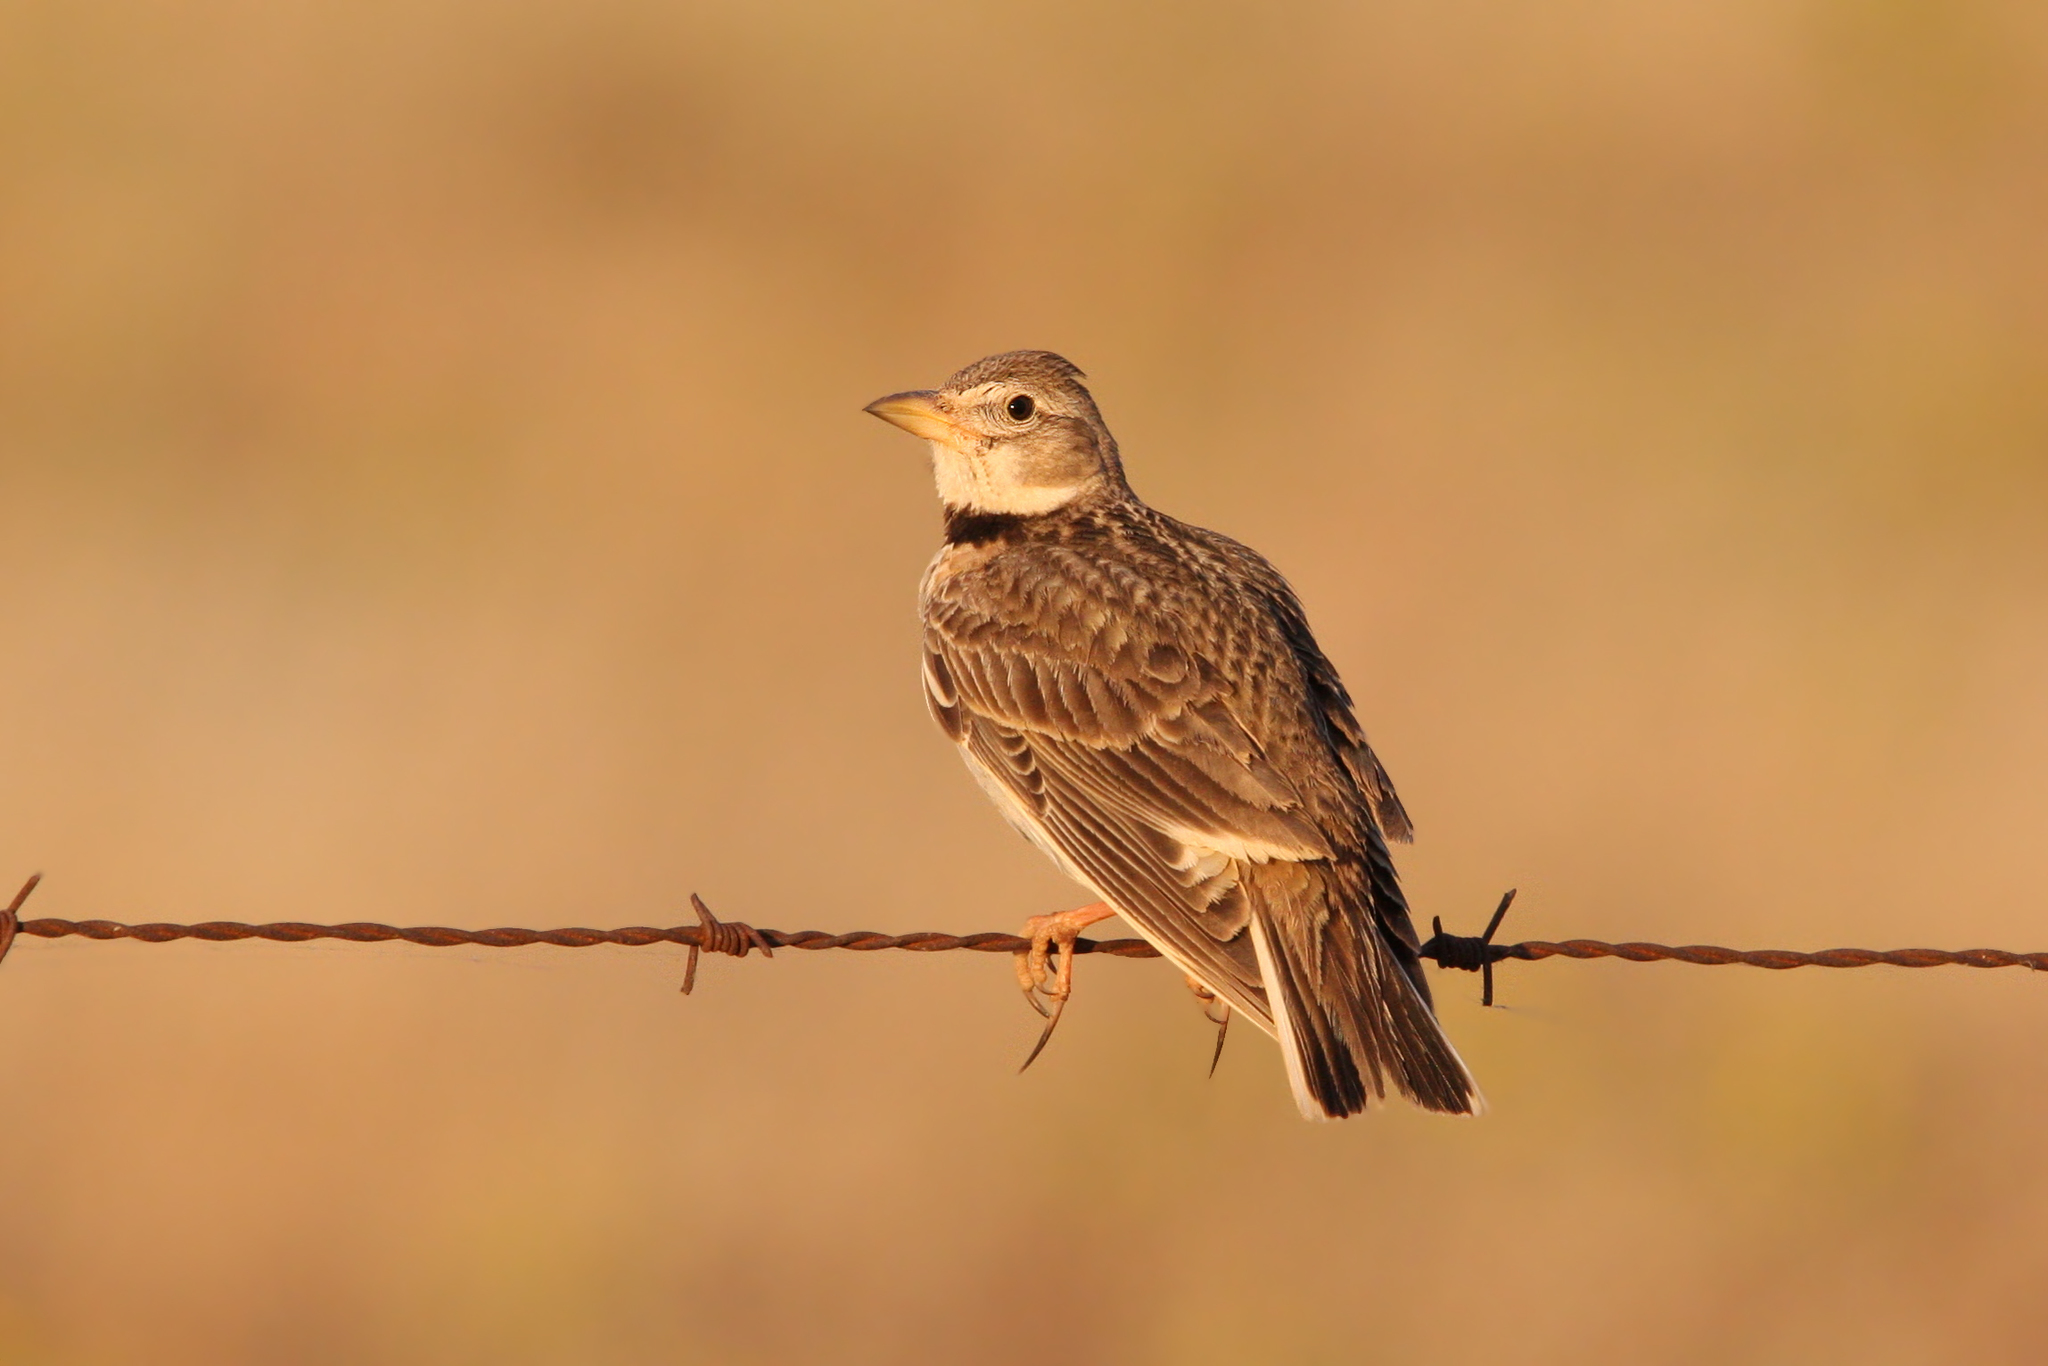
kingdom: Animalia
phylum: Chordata
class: Aves
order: Passeriformes
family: Alaudidae
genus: Melanocorypha
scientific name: Melanocorypha calandra
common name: Calandra lark
